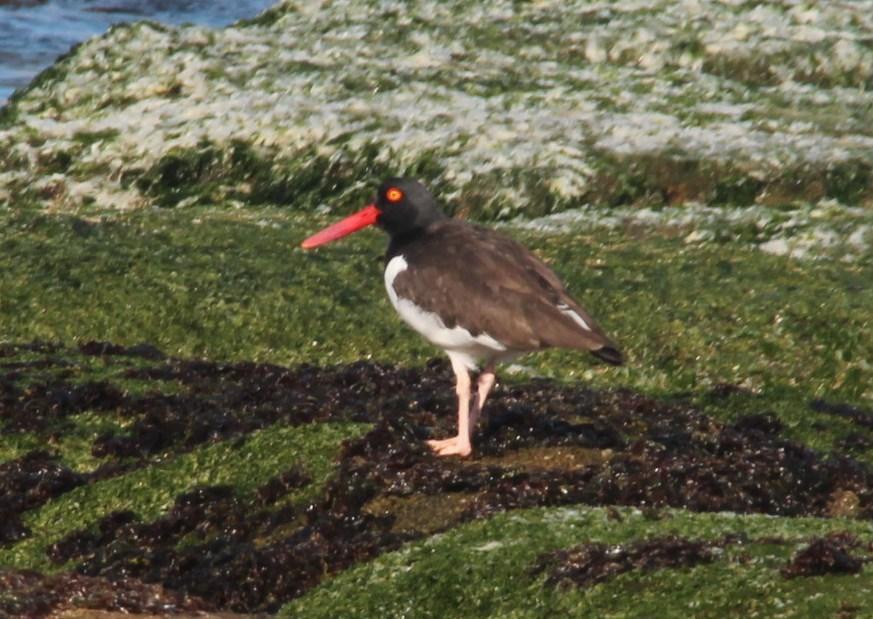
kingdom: Animalia
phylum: Chordata
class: Aves
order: Charadriiformes
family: Haematopodidae
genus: Haematopus
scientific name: Haematopus palliatus
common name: American oystercatcher
